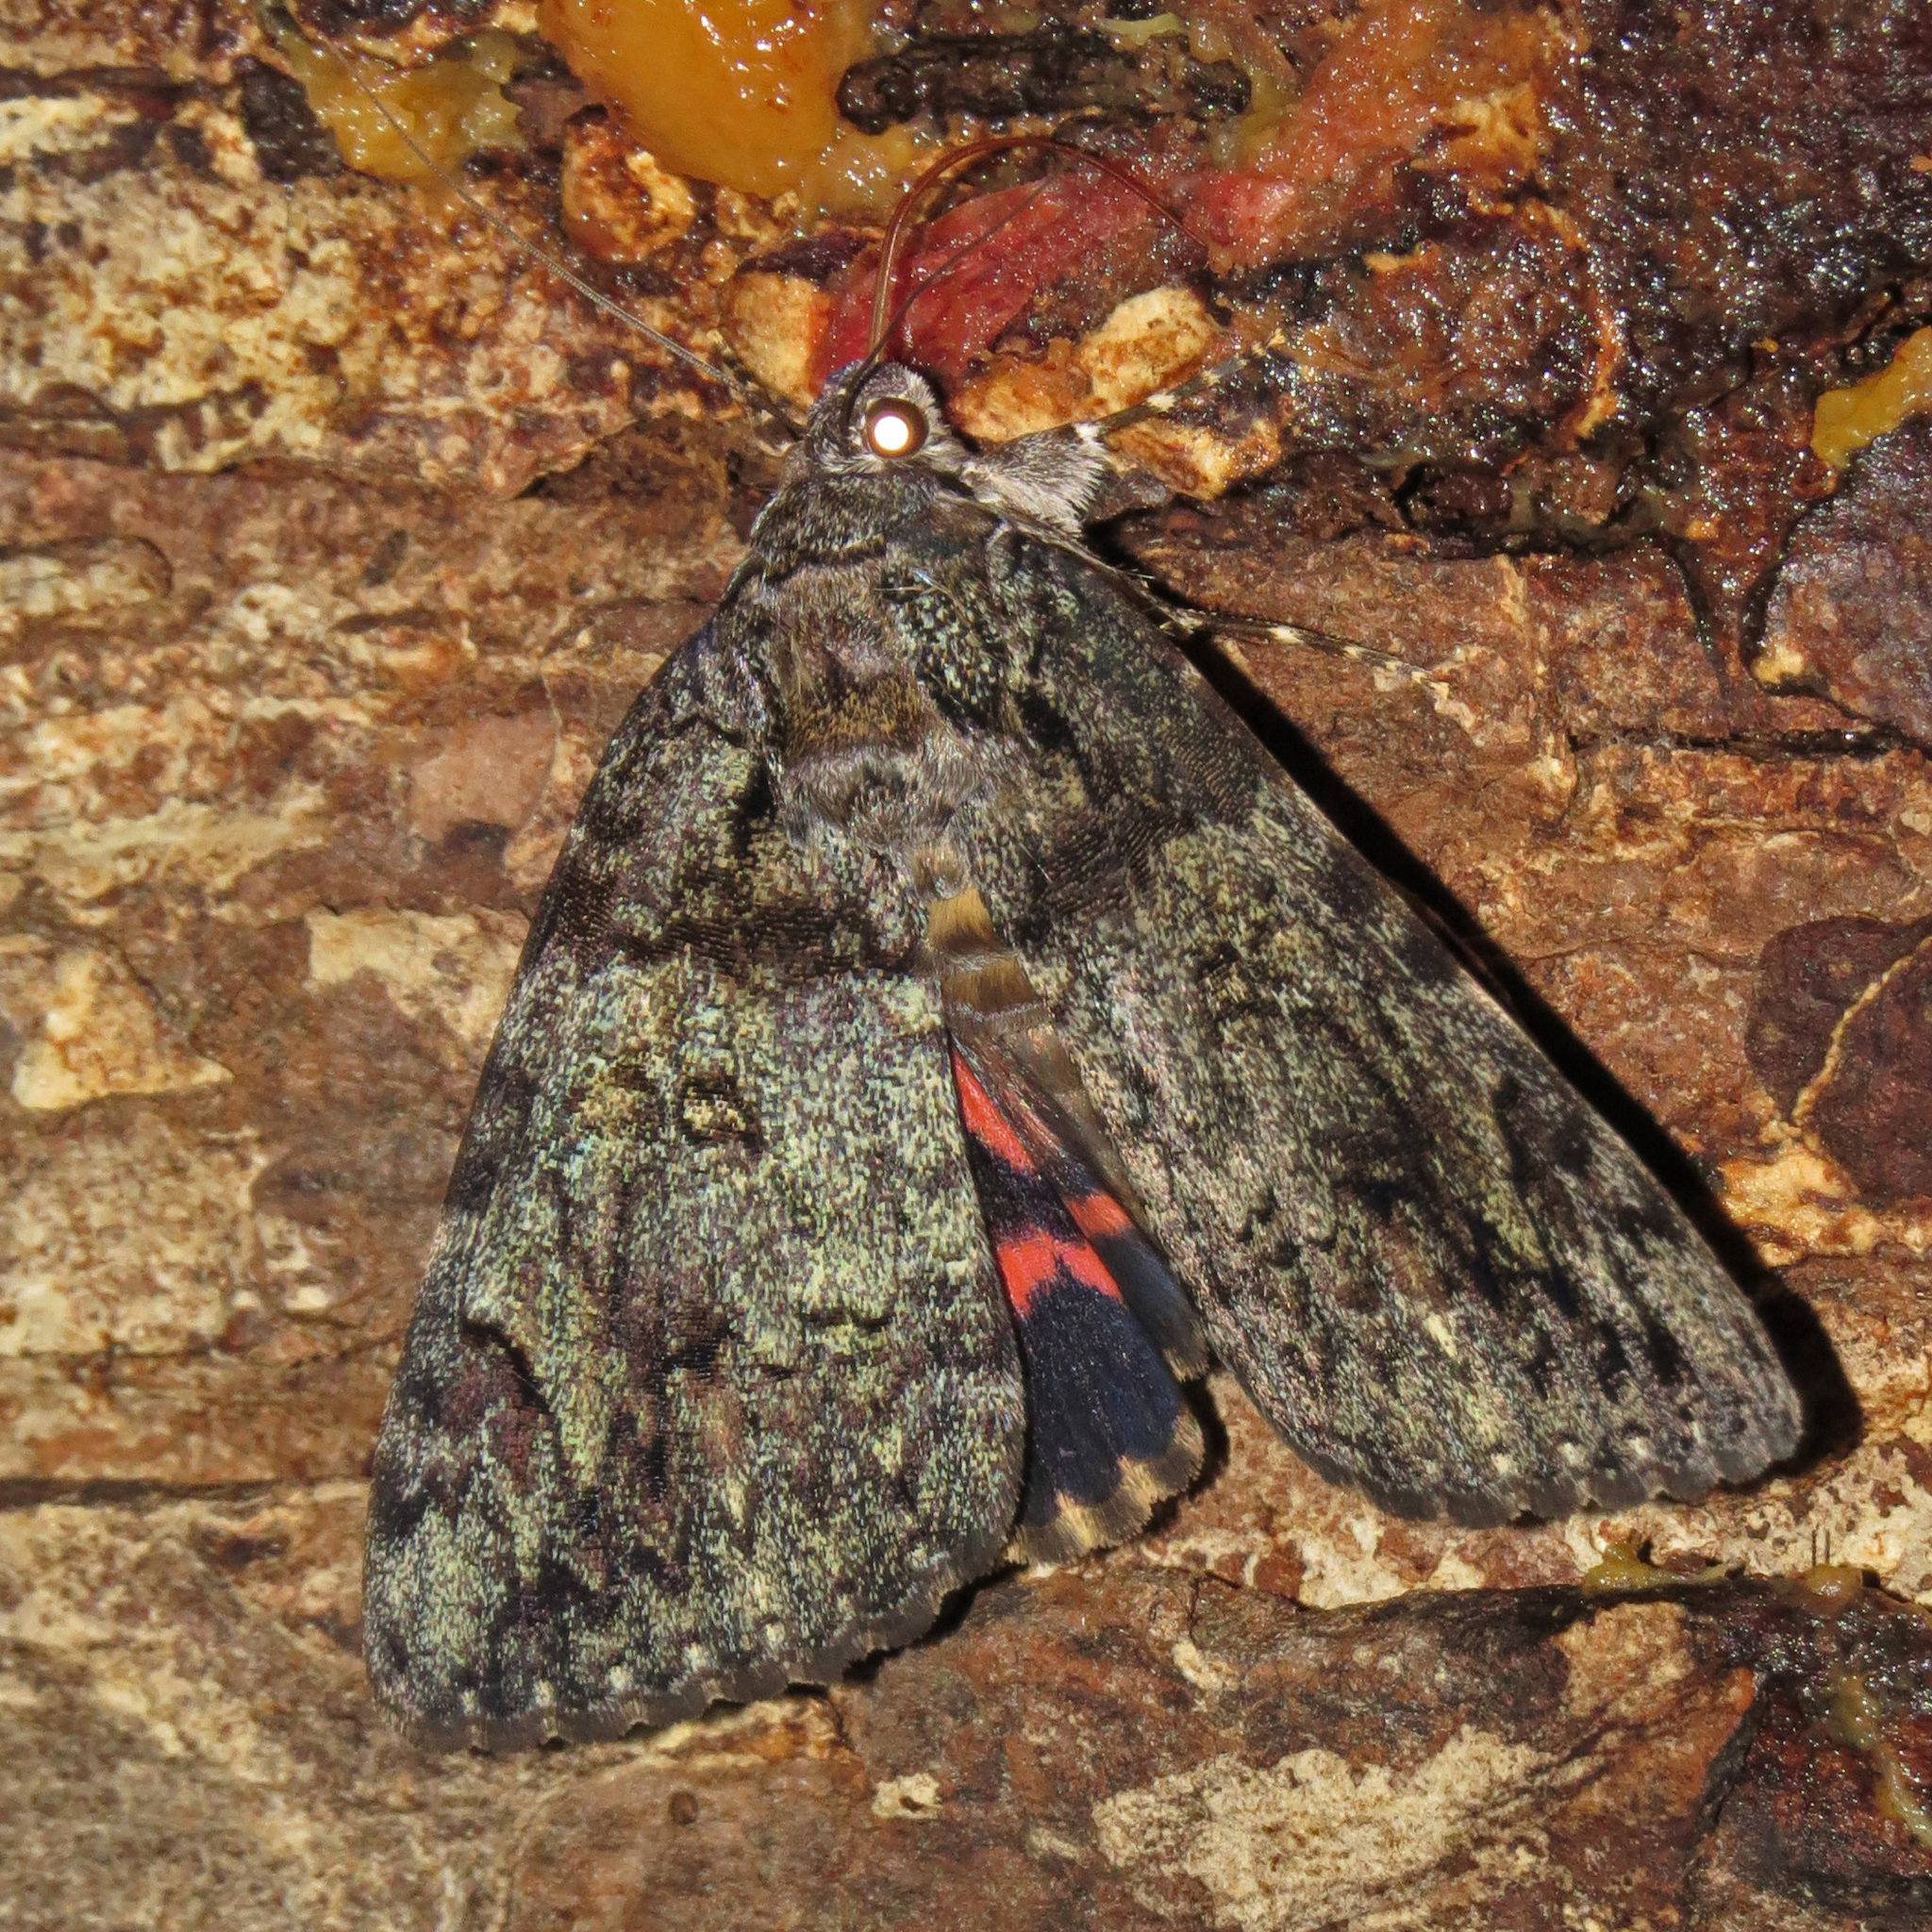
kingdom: Animalia
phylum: Arthropoda
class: Insecta
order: Lepidoptera
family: Erebidae
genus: Catocala
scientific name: Catocala ilia
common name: Ilia underwing
